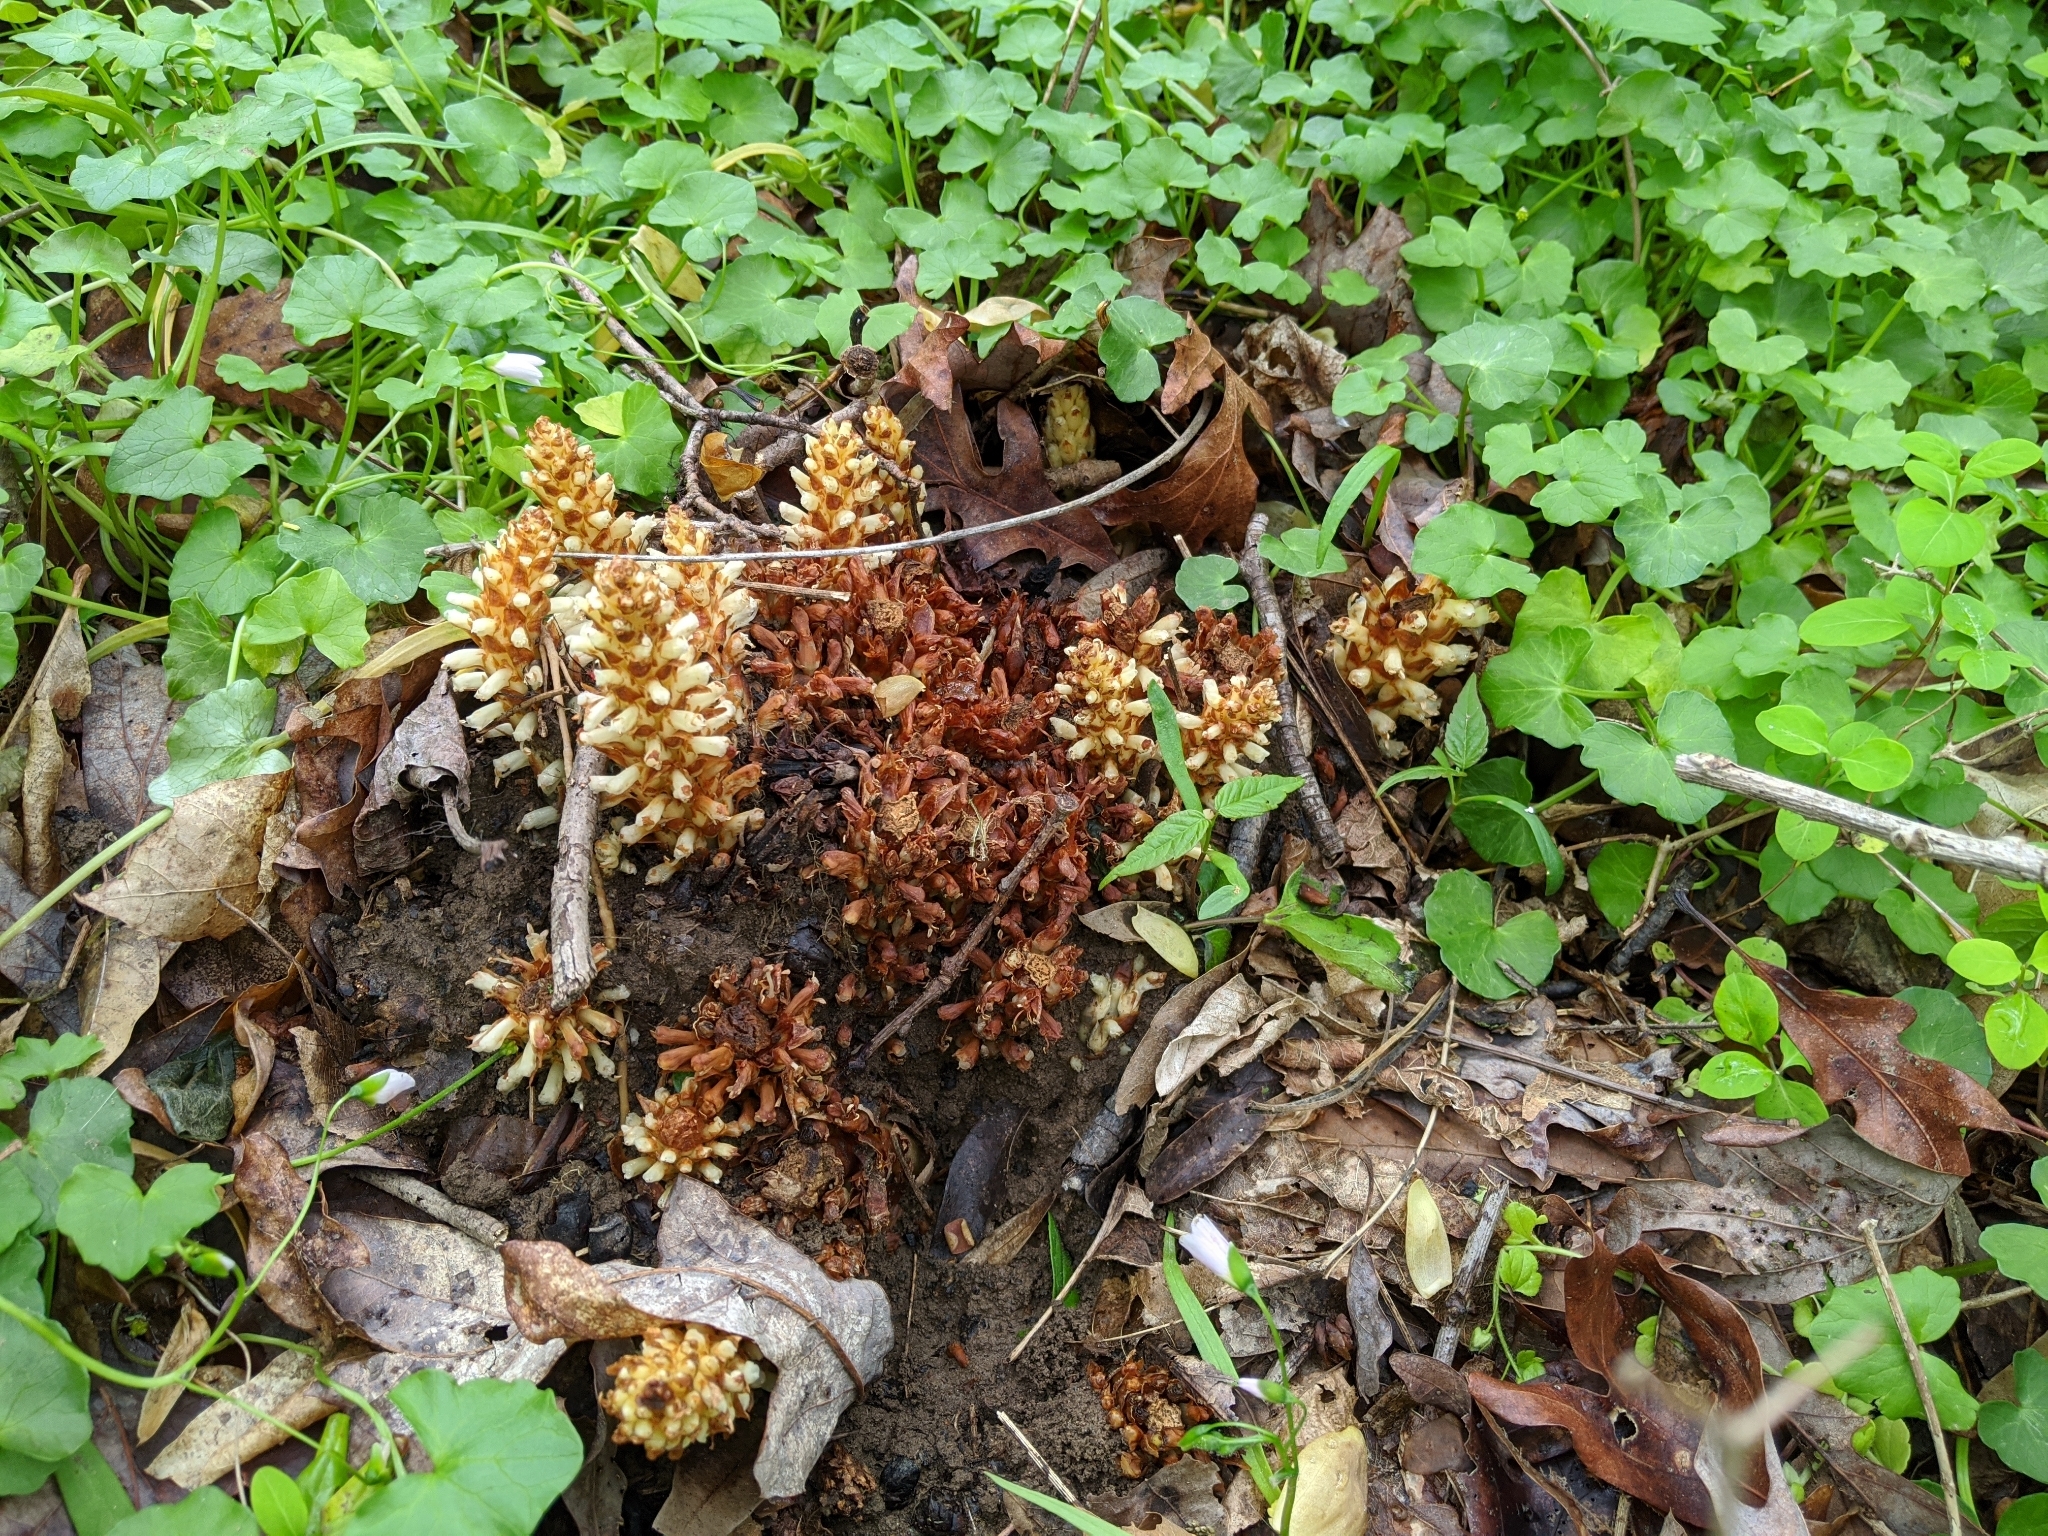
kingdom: Plantae
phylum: Tracheophyta
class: Magnoliopsida
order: Lamiales
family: Orobanchaceae
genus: Conopholis
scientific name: Conopholis americana
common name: American cancer-root
